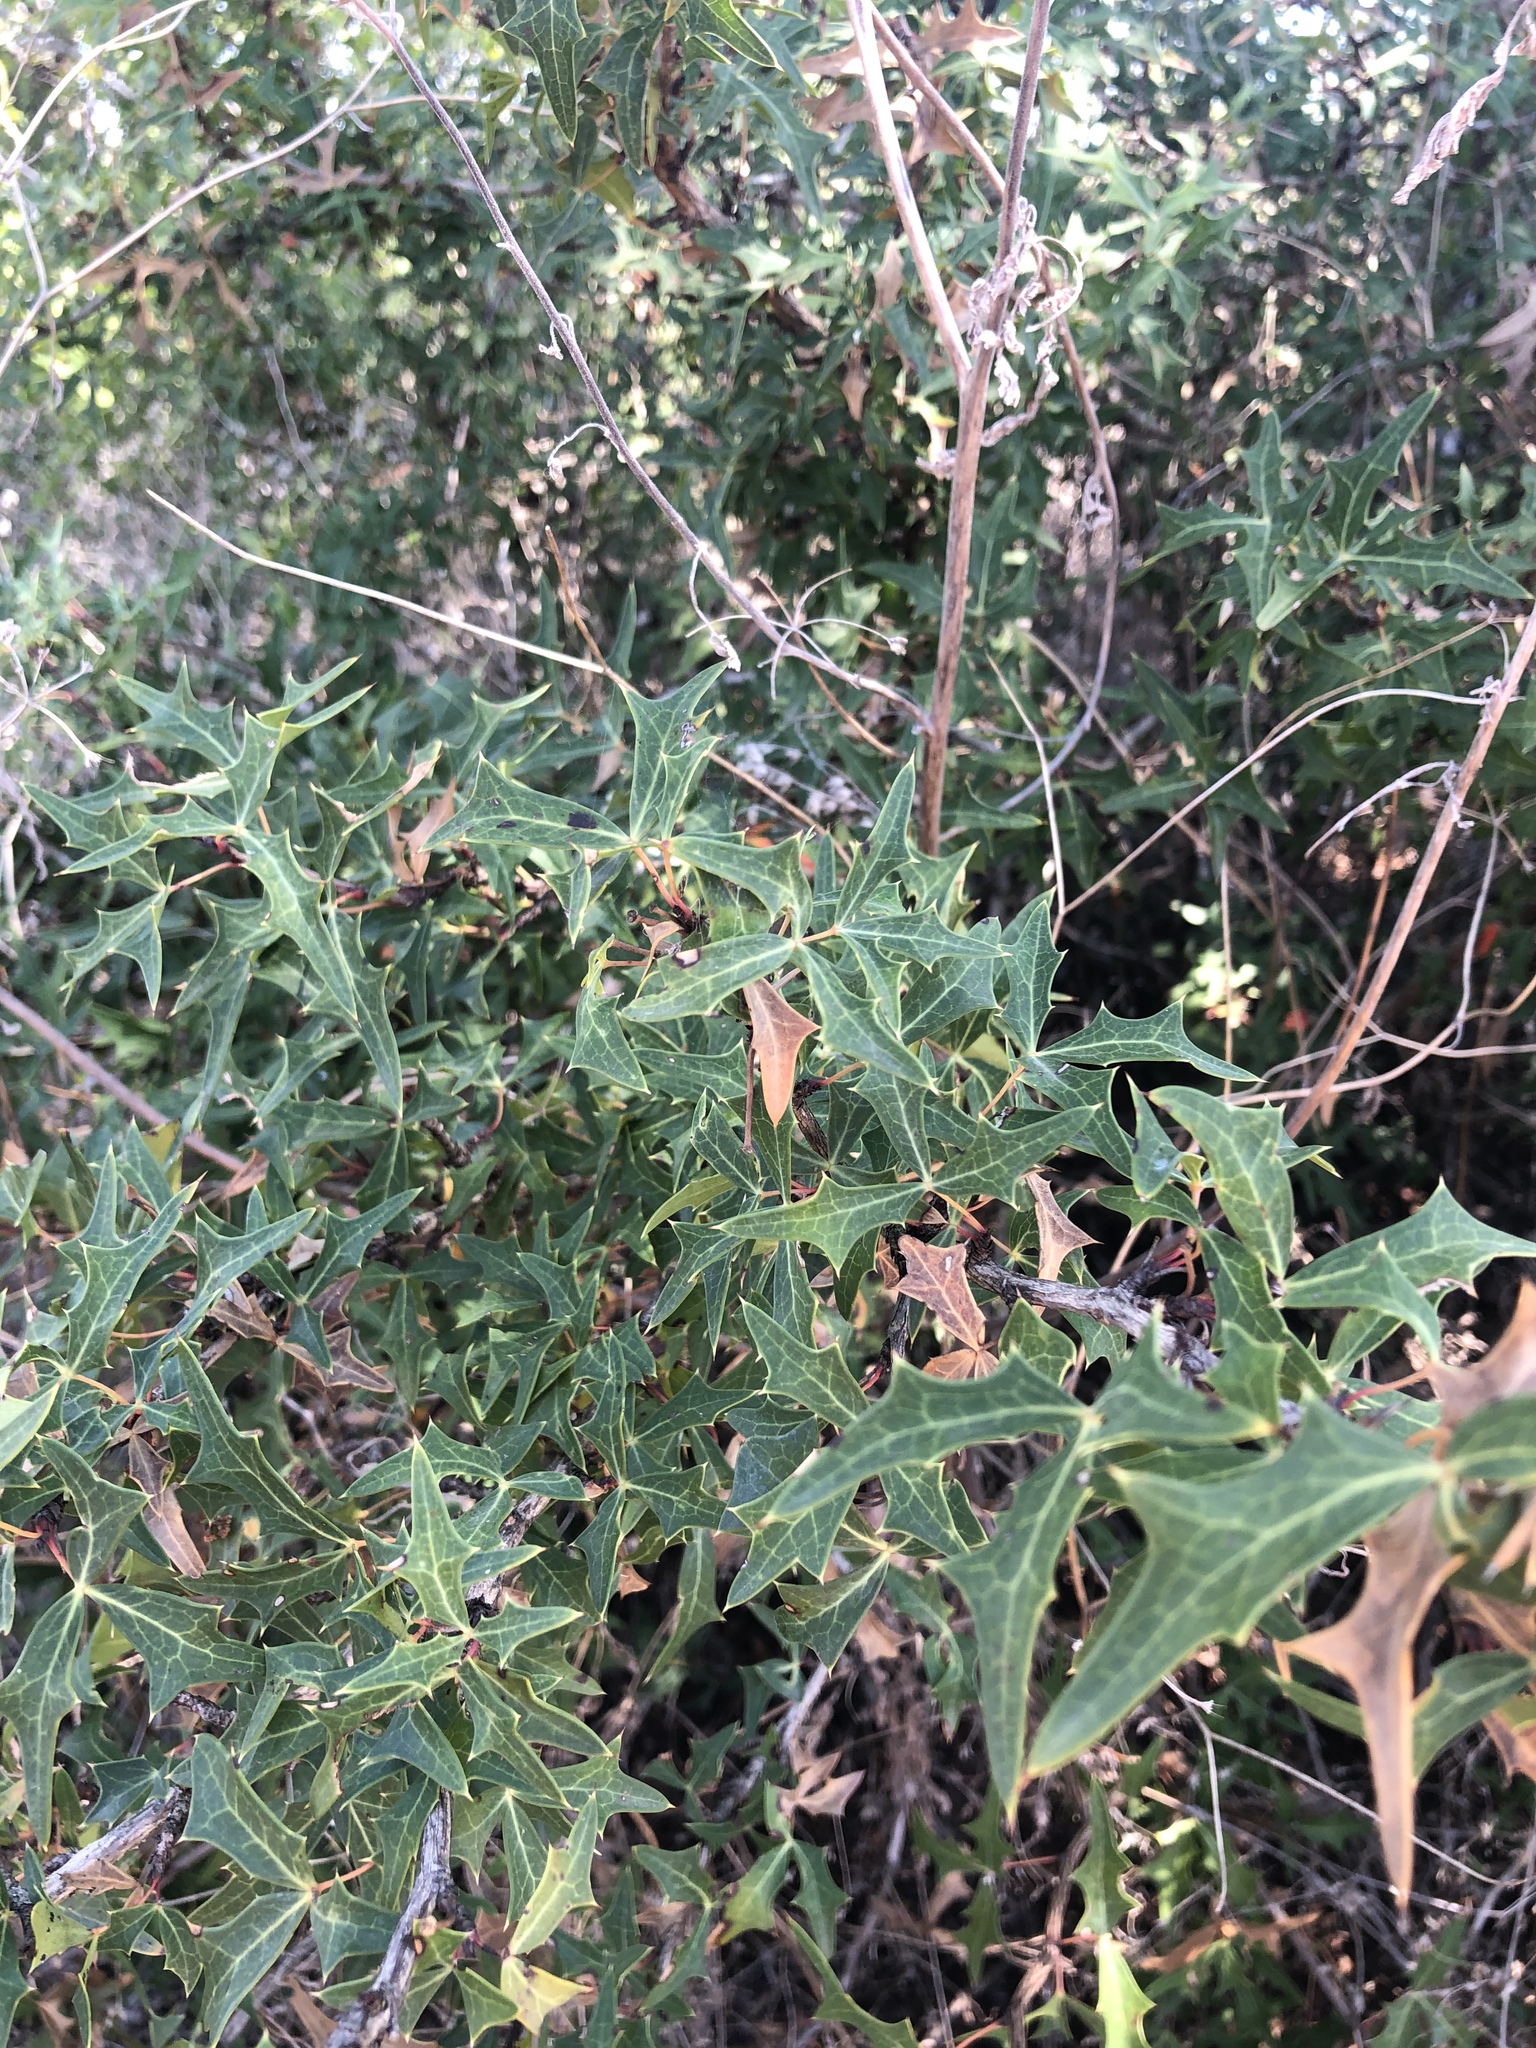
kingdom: Plantae
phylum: Tracheophyta
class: Magnoliopsida
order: Ranunculales
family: Berberidaceae
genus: Alloberberis
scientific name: Alloberberis trifoliolata
